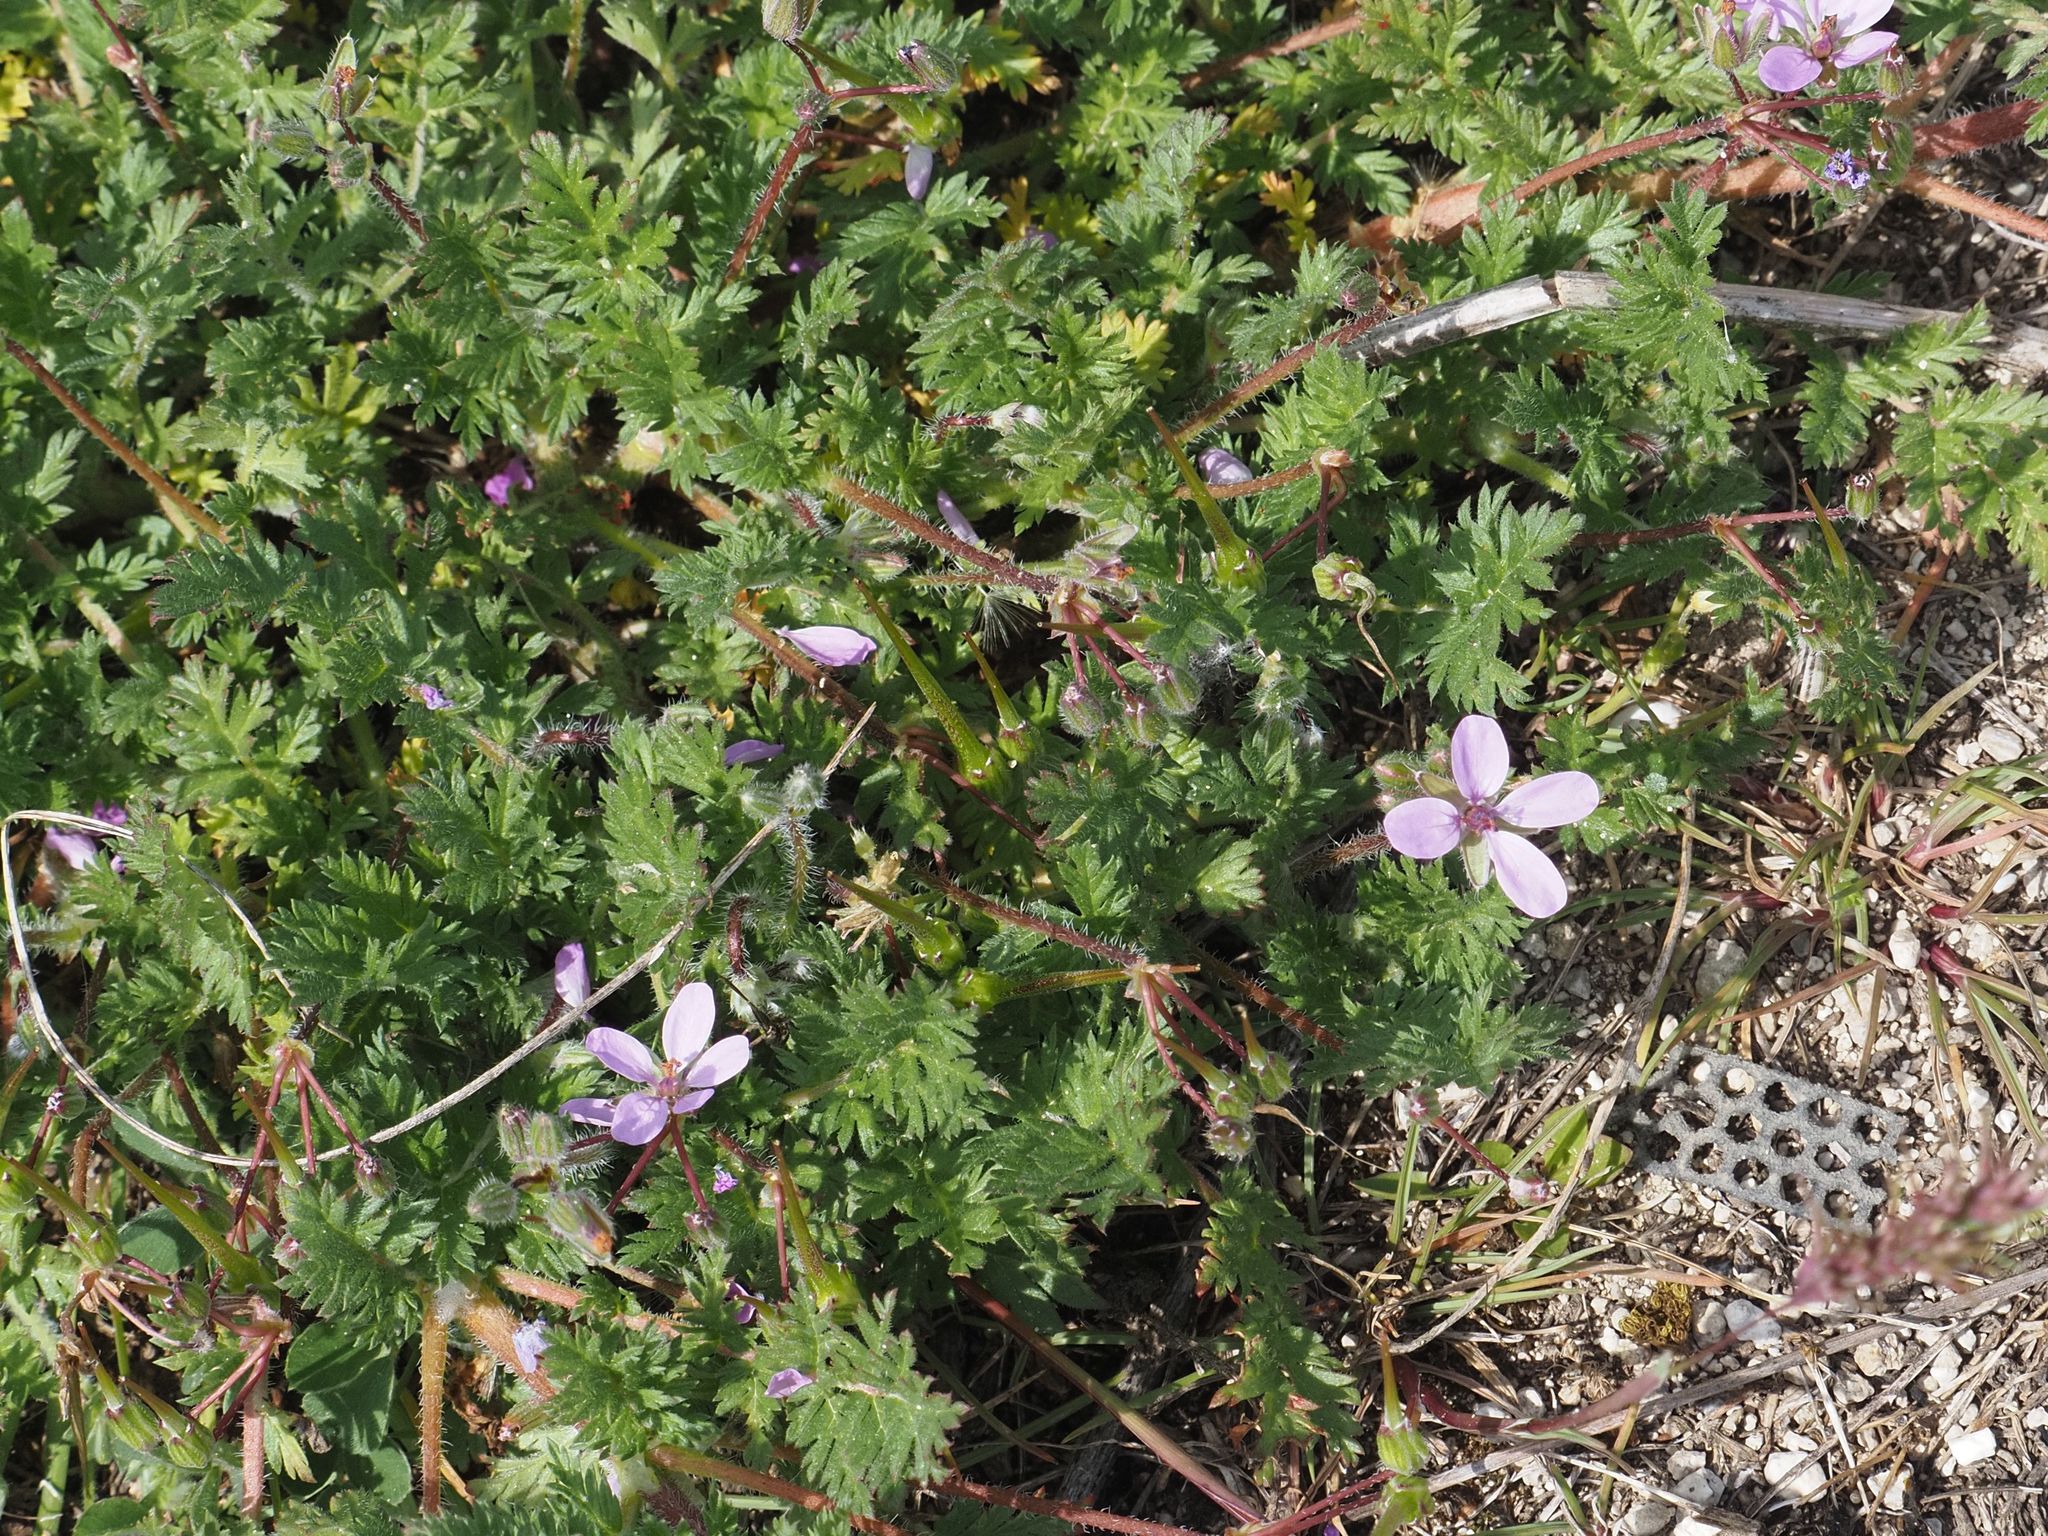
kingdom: Plantae
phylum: Tracheophyta
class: Magnoliopsida
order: Geraniales
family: Geraniaceae
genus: Erodium
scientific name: Erodium cicutarium
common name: Common stork's-bill
